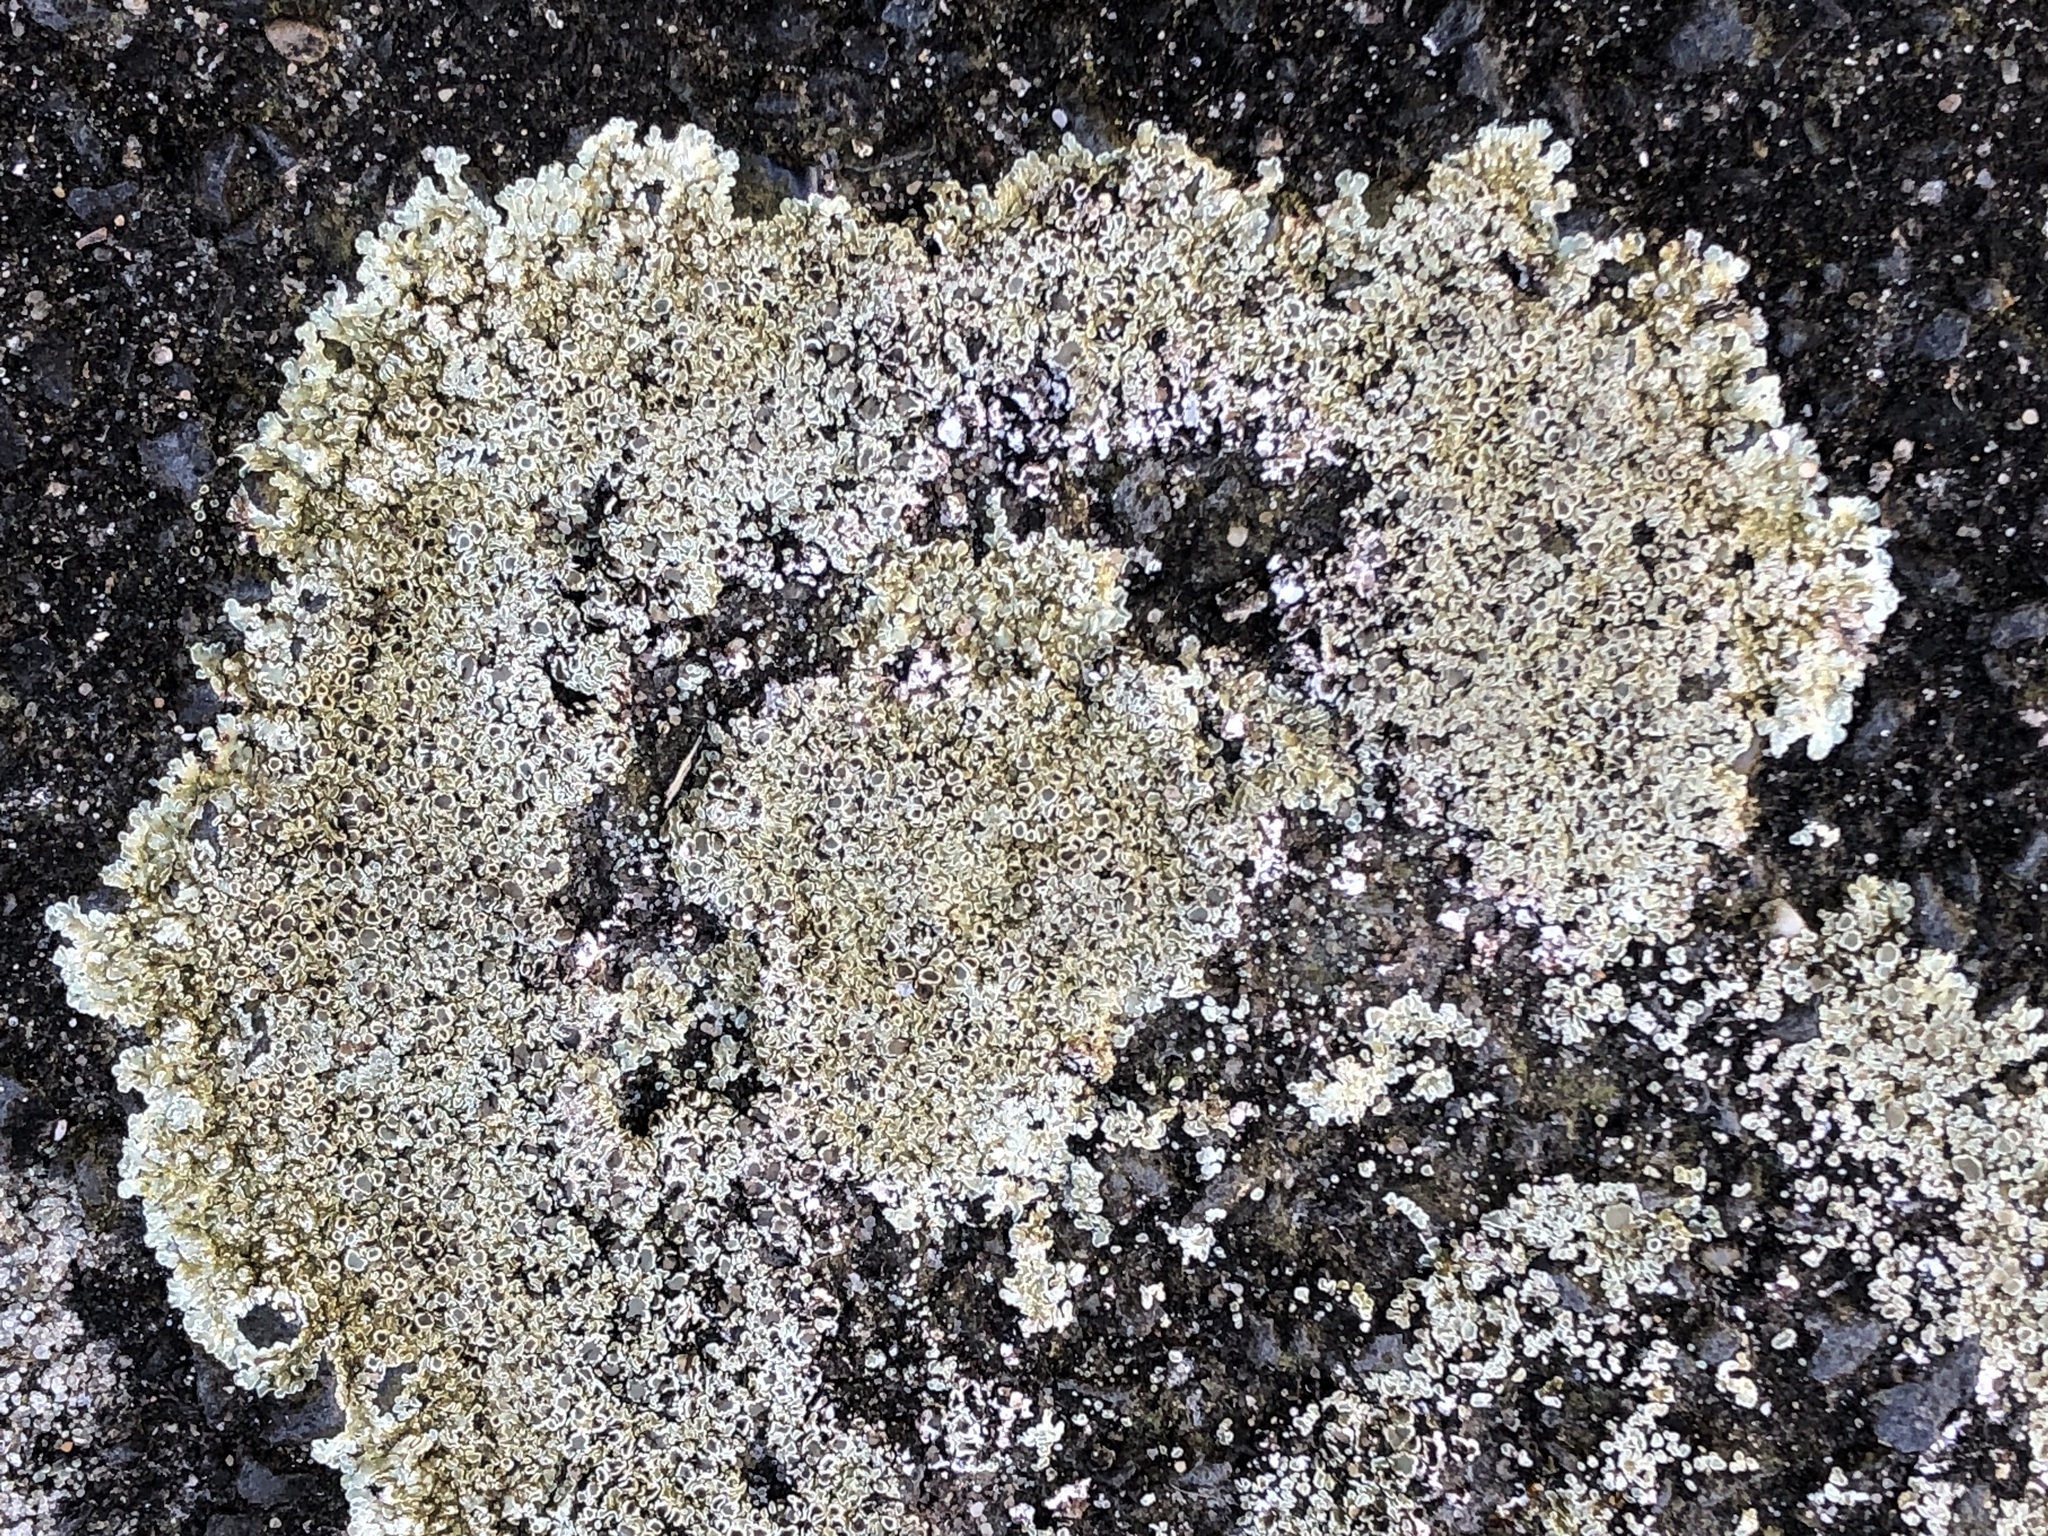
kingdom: Fungi
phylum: Ascomycota
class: Lecanoromycetes
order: Lecanorales
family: Lecanoraceae
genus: Protoparmeliopsis
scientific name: Protoparmeliopsis muralis
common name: Stonewall rim lichen
